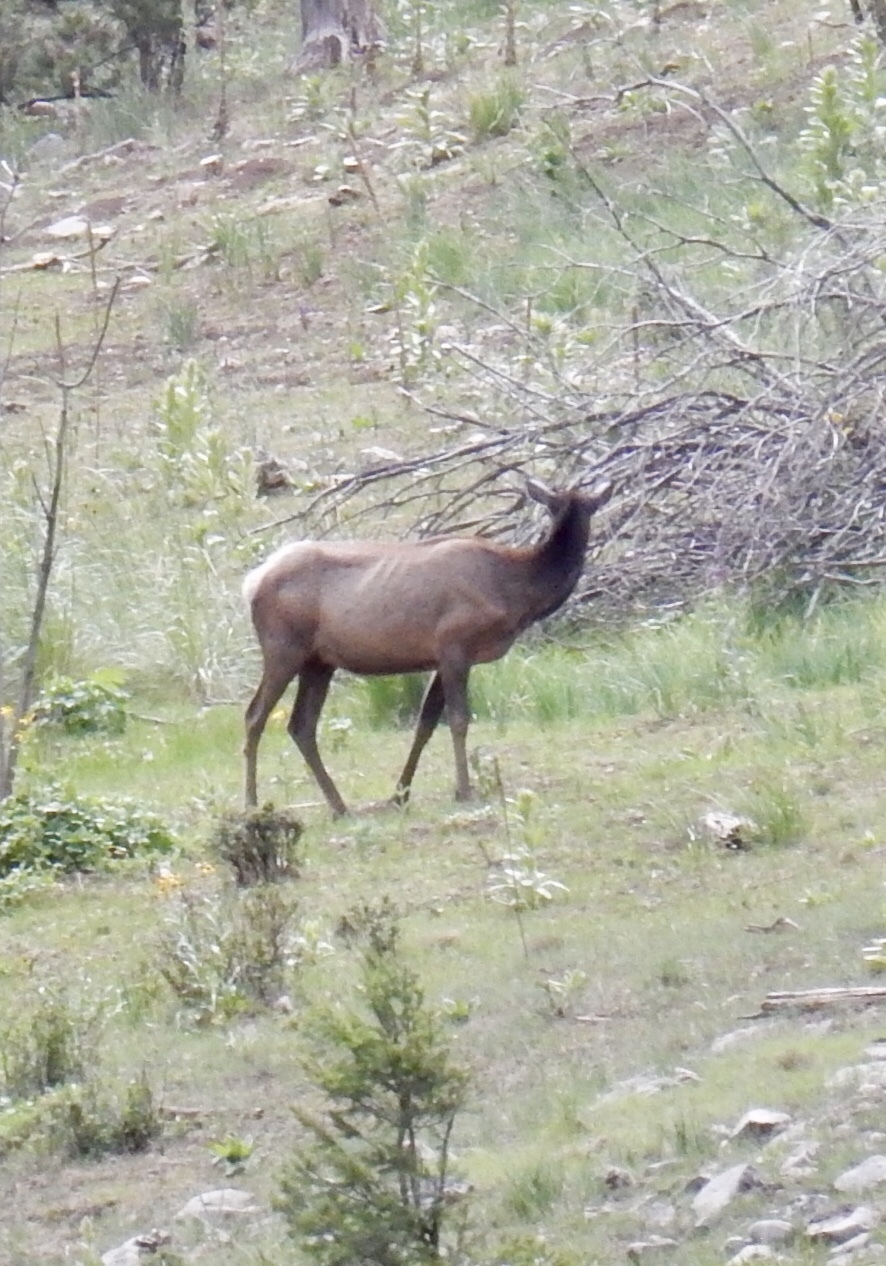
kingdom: Animalia
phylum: Chordata
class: Mammalia
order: Artiodactyla
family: Cervidae
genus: Cervus
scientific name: Cervus elaphus
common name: Red deer
